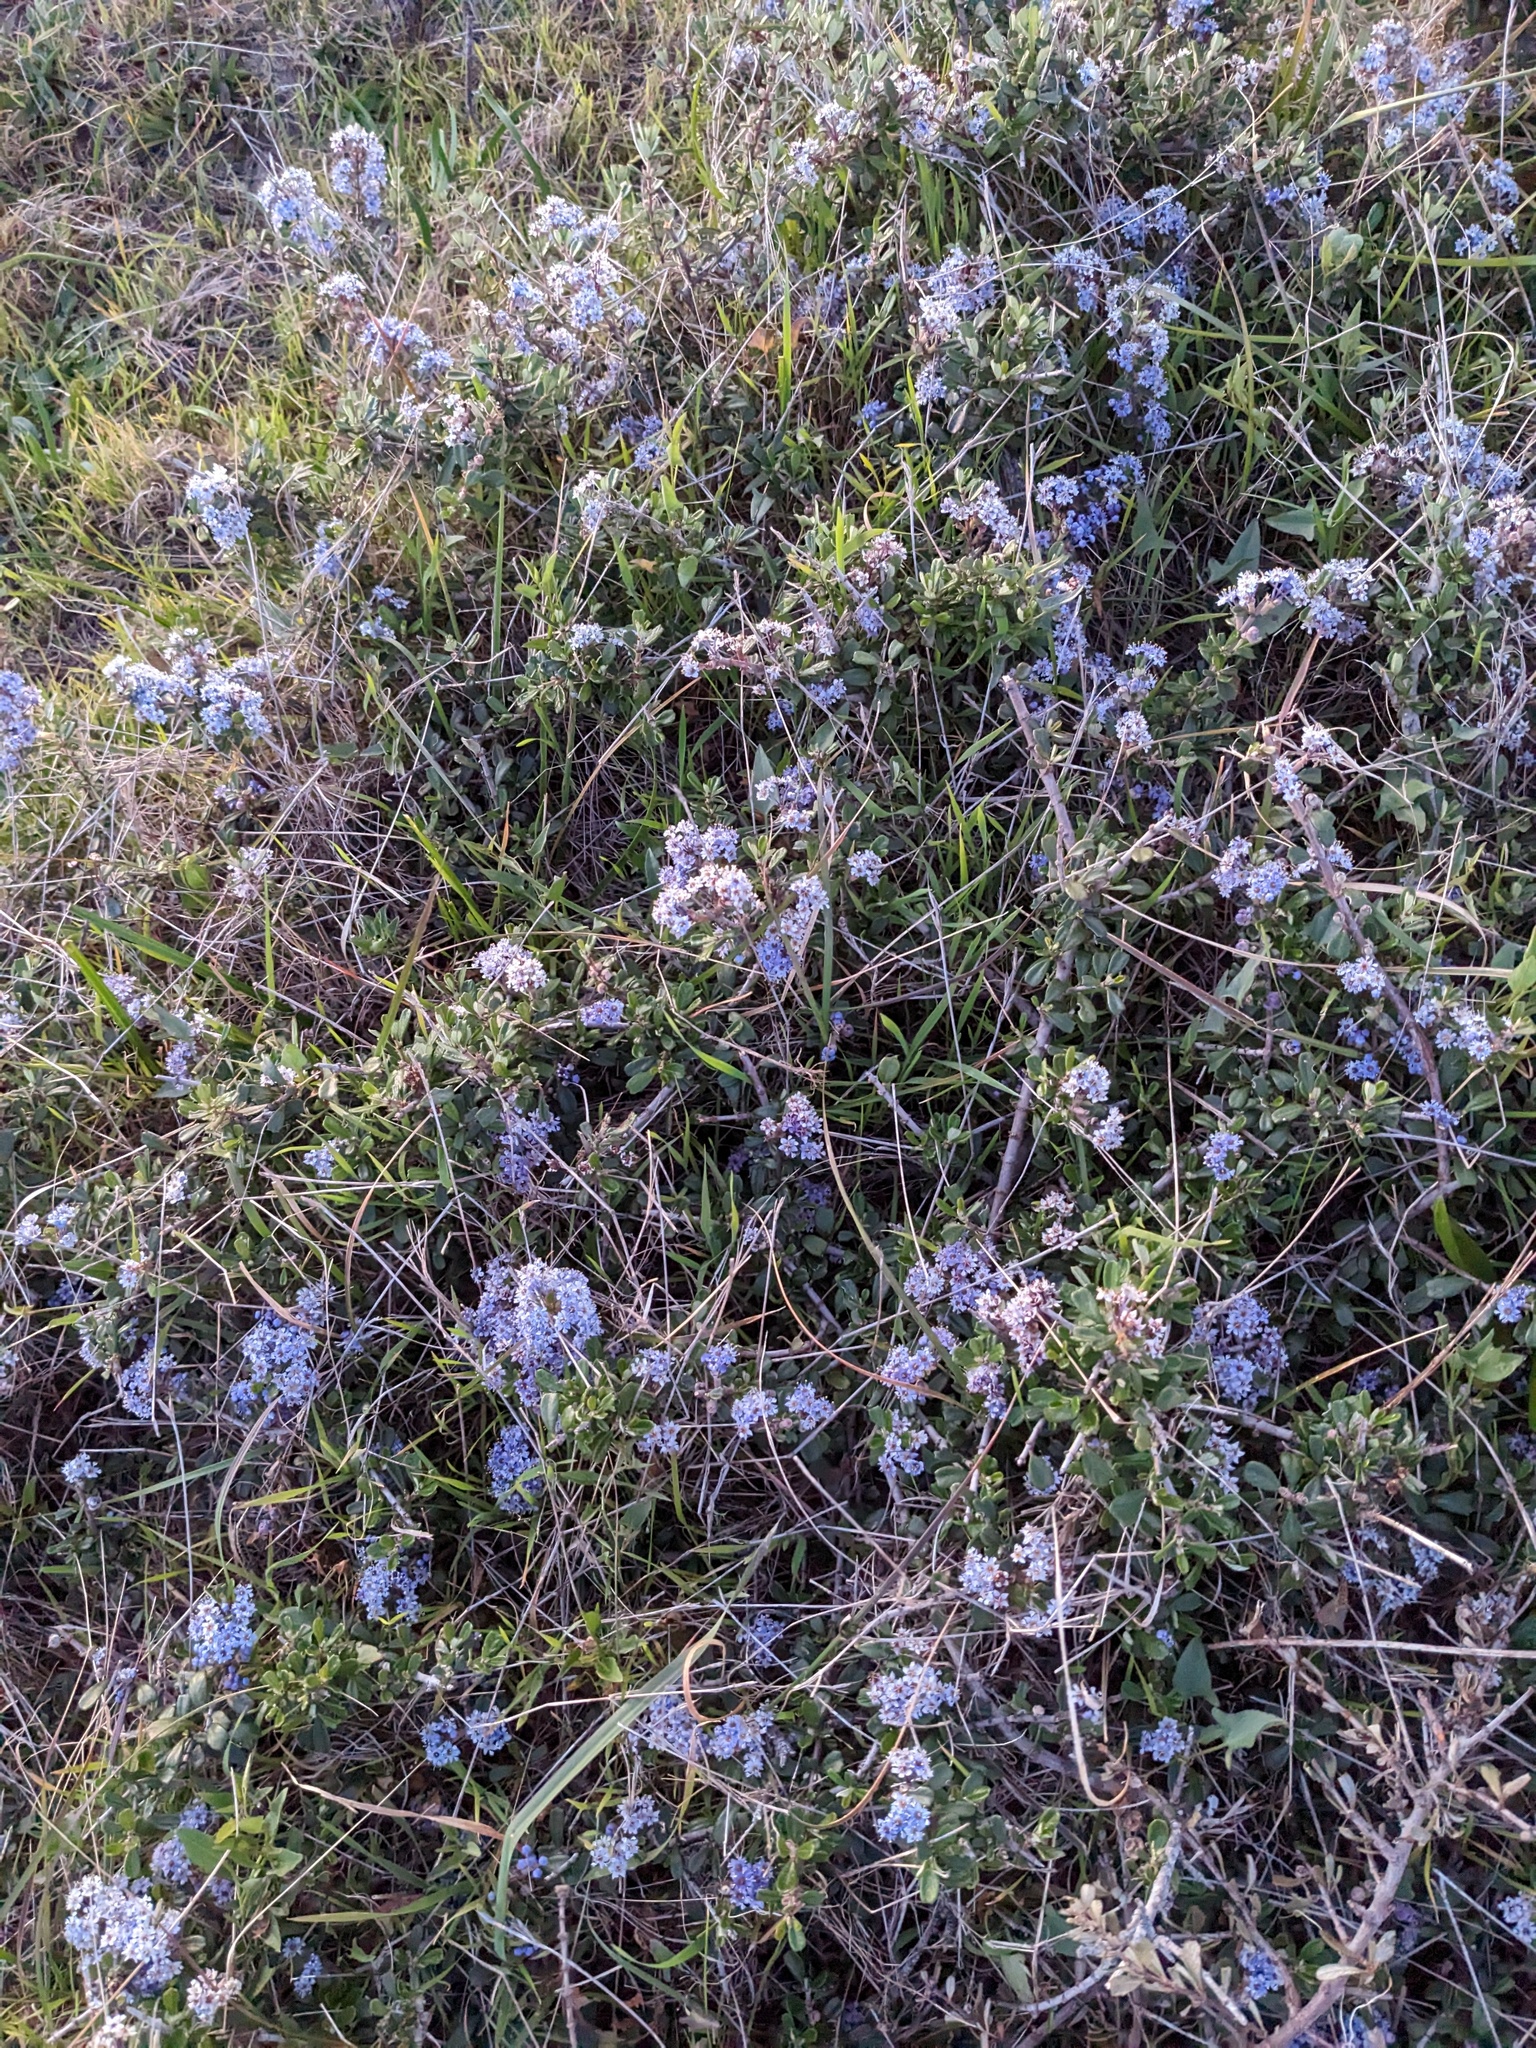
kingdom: Plantae
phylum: Tracheophyta
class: Magnoliopsida
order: Rosales
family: Rhamnaceae
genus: Ceanothus
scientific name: Ceanothus maritimus
